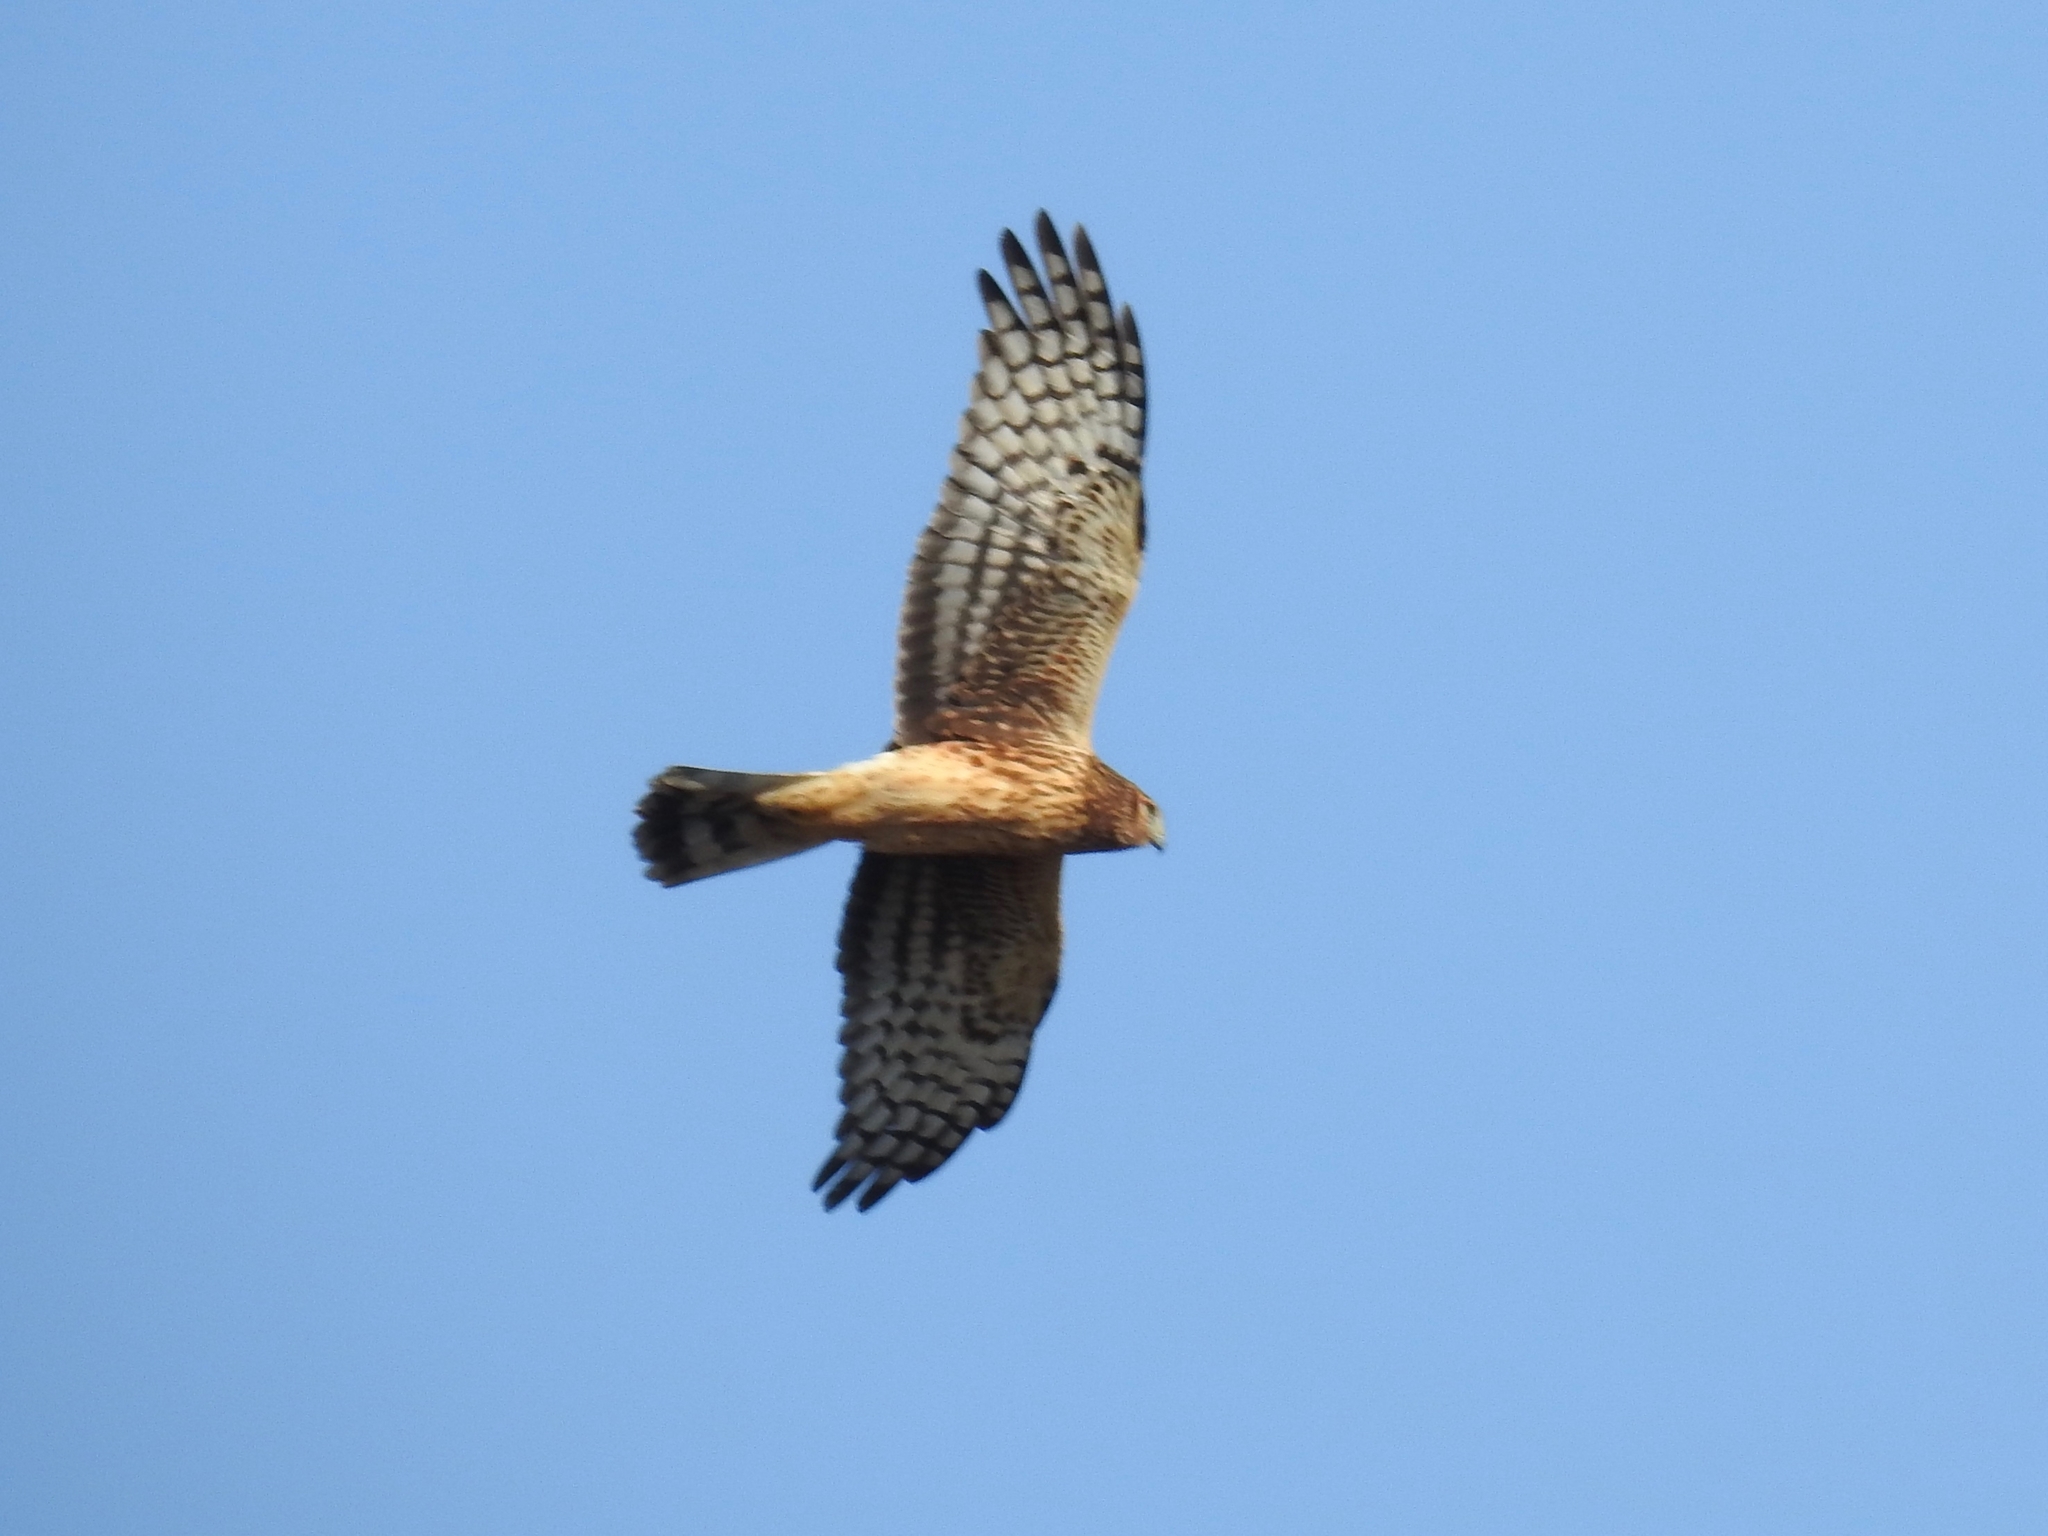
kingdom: Animalia
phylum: Chordata
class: Aves
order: Accipitriformes
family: Accipitridae
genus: Circus
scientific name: Circus cyaneus
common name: Hen harrier
